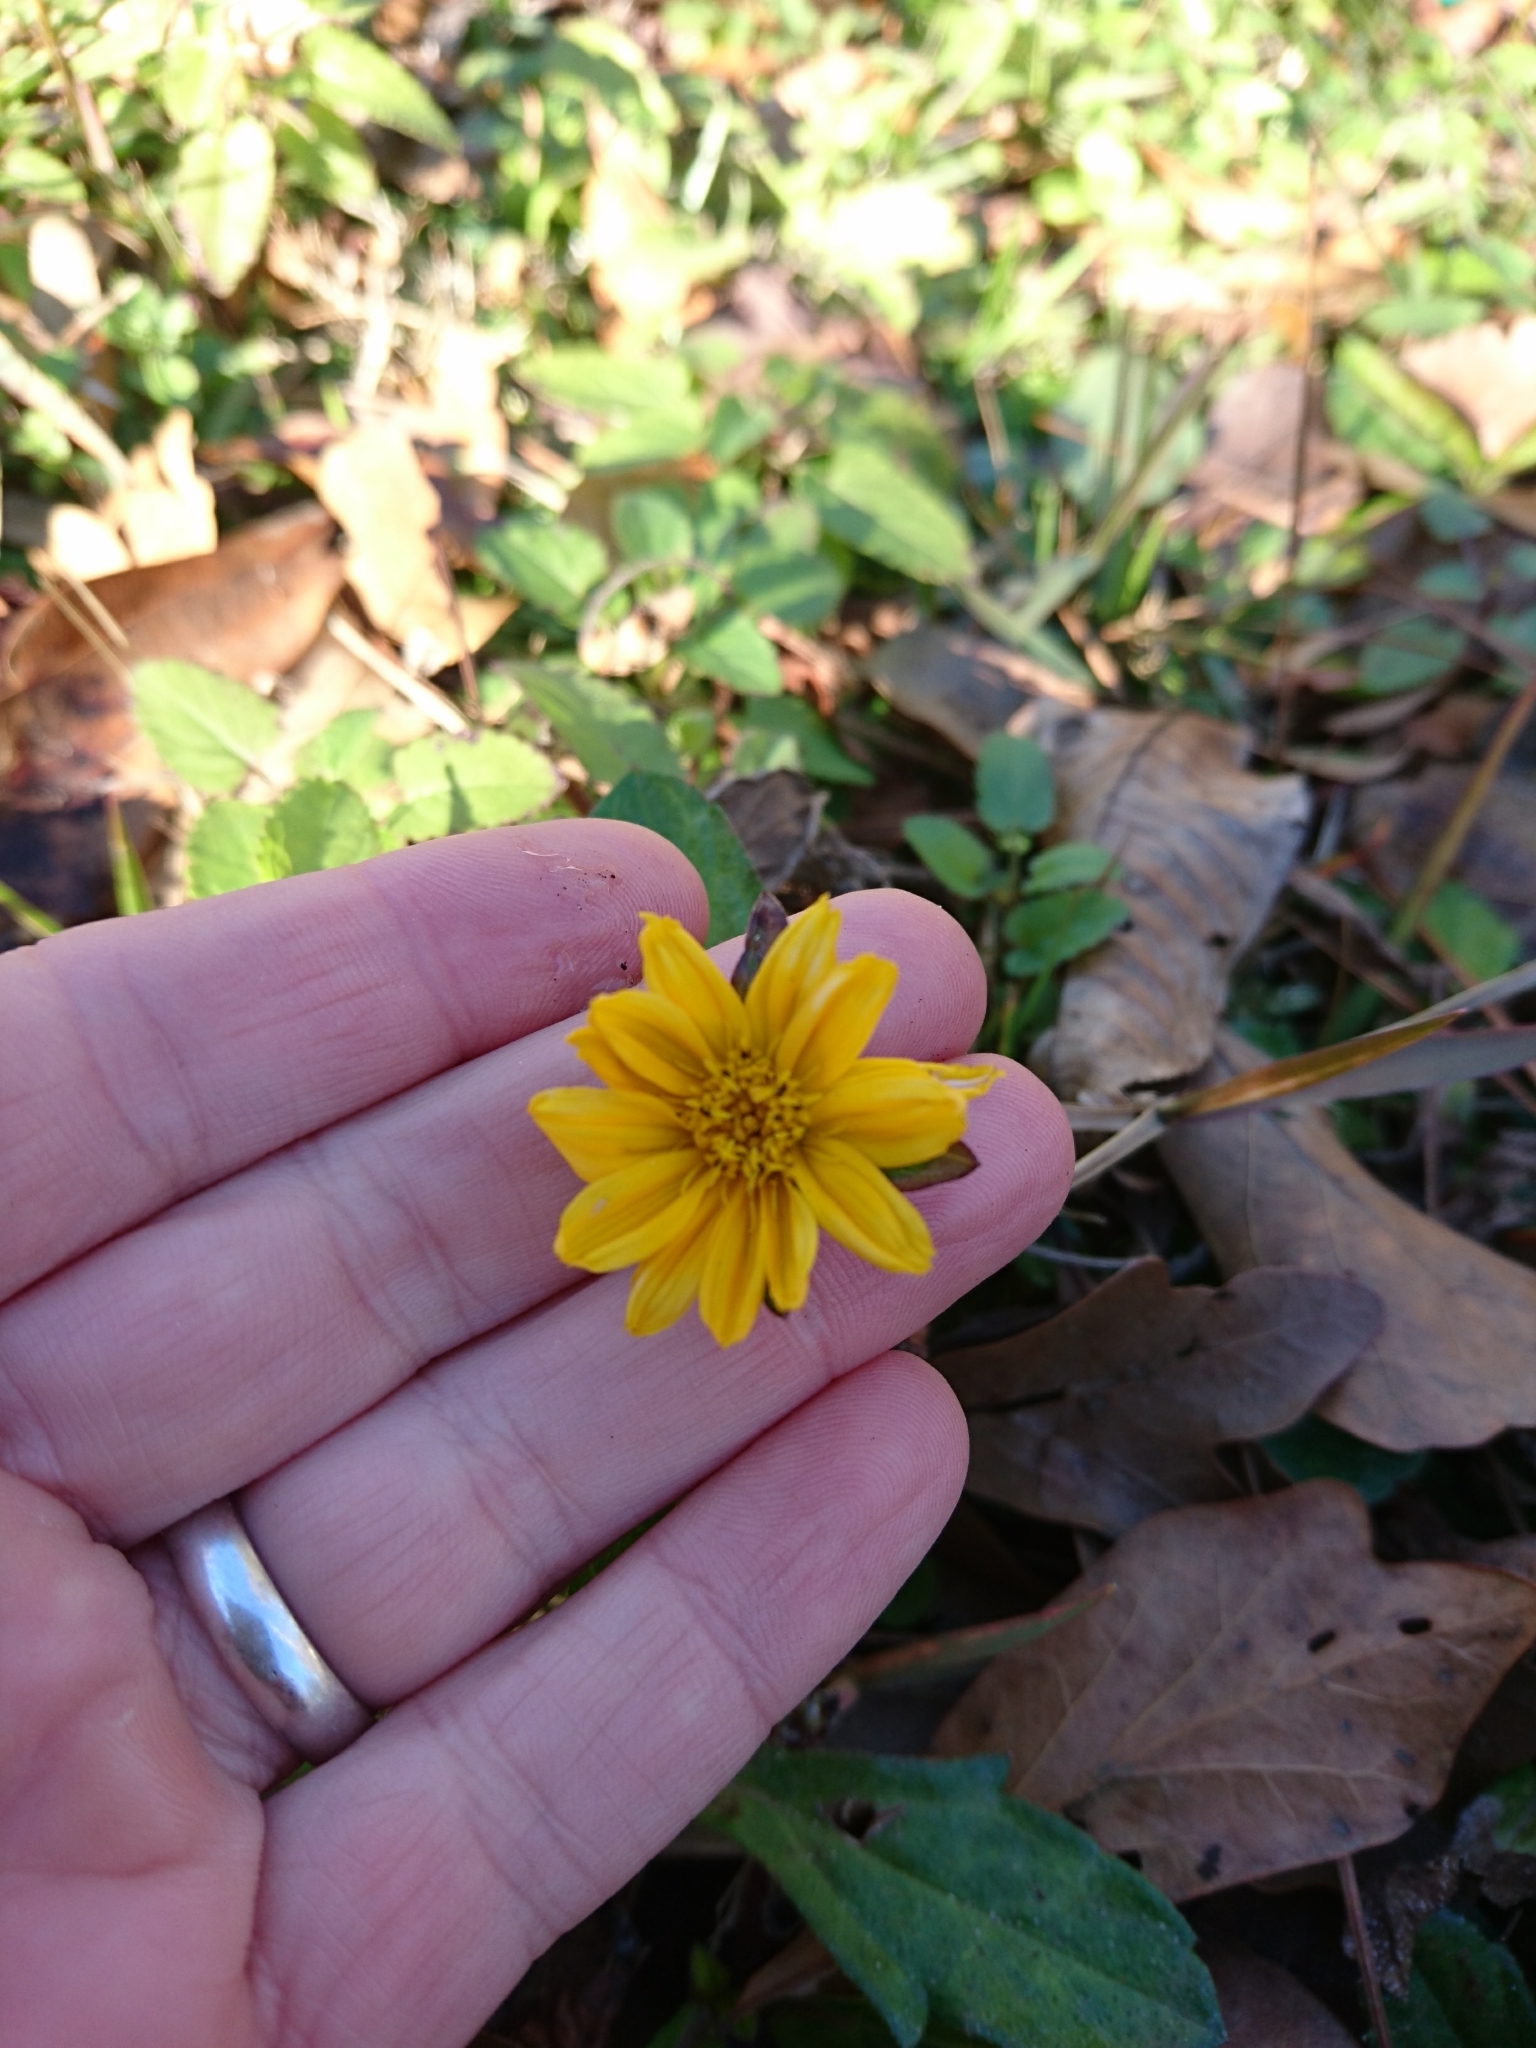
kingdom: Plantae
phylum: Tracheophyta
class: Magnoliopsida
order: Asterales
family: Asteraceae
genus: Sphagneticola
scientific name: Sphagneticola trilobata
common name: Bay biscayne creeping-oxeye
